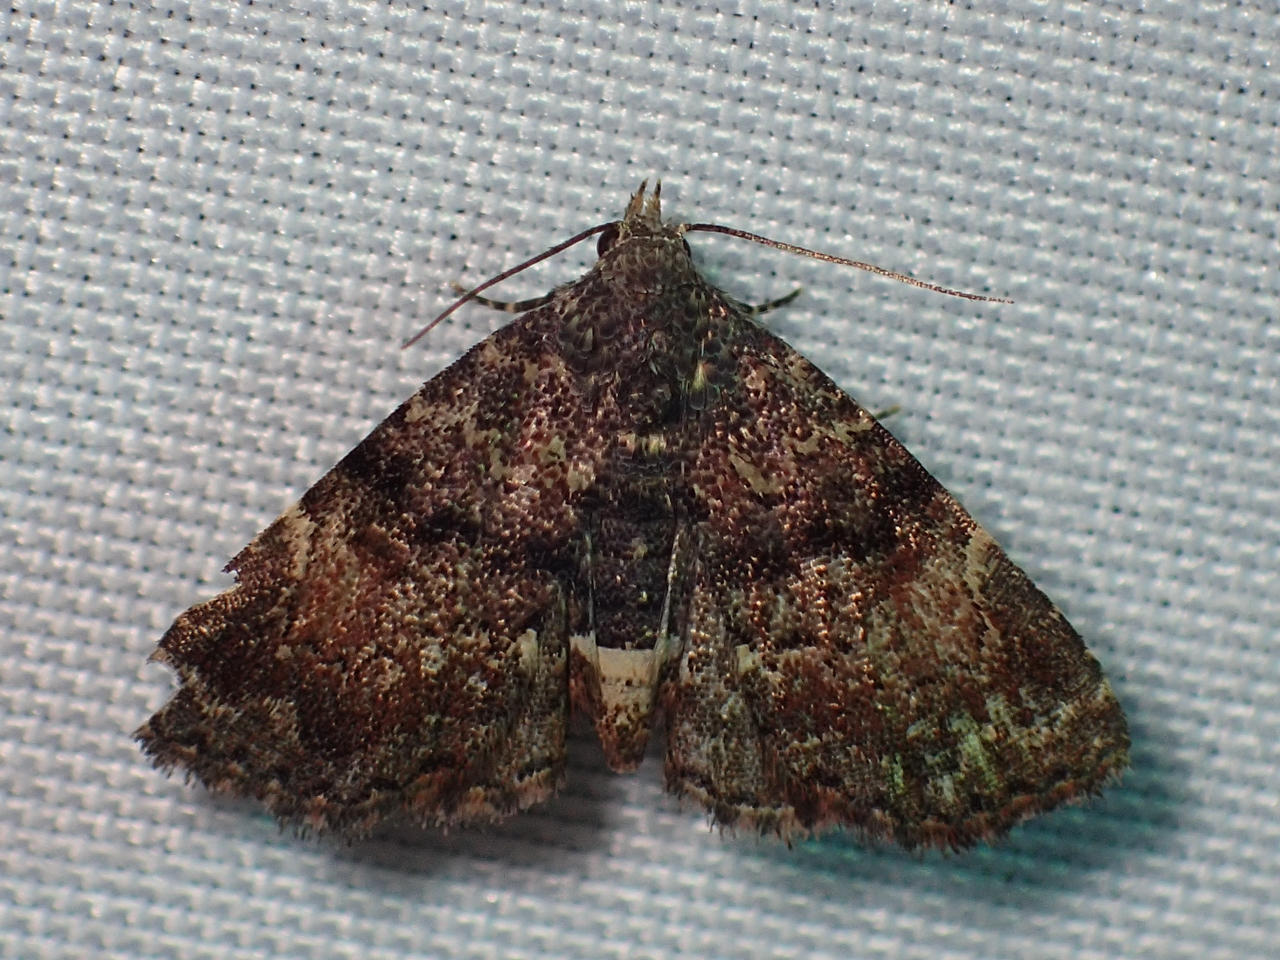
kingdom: Animalia
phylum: Arthropoda
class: Insecta
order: Lepidoptera
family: Erebidae
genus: Metalectra
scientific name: Metalectra richardsi
